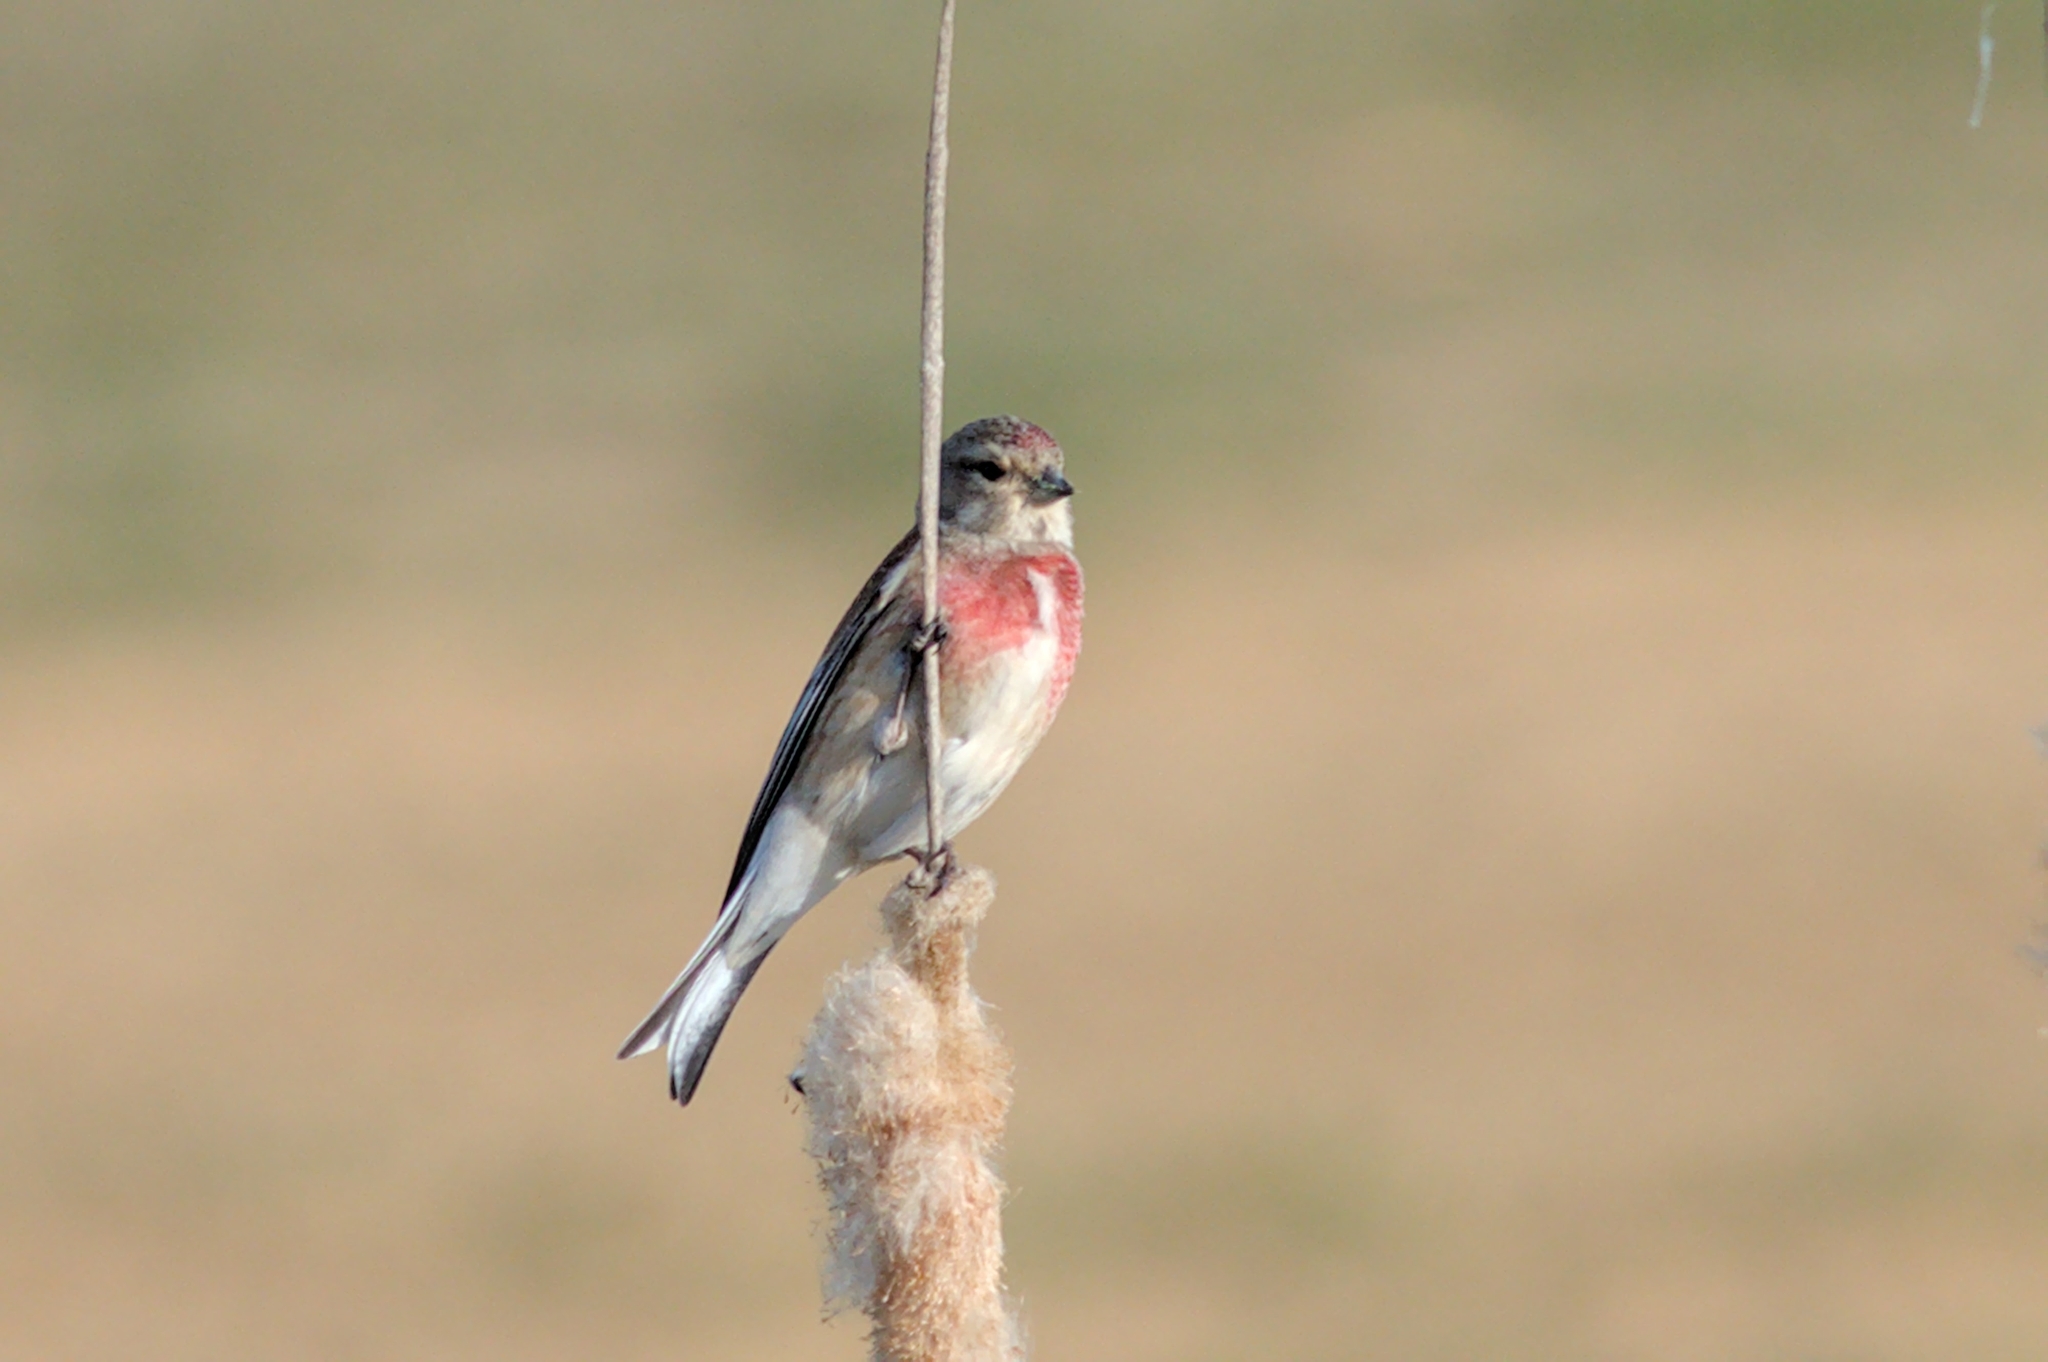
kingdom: Animalia
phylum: Chordata
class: Aves
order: Passeriformes
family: Fringillidae
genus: Linaria
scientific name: Linaria cannabina
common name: Common linnet
